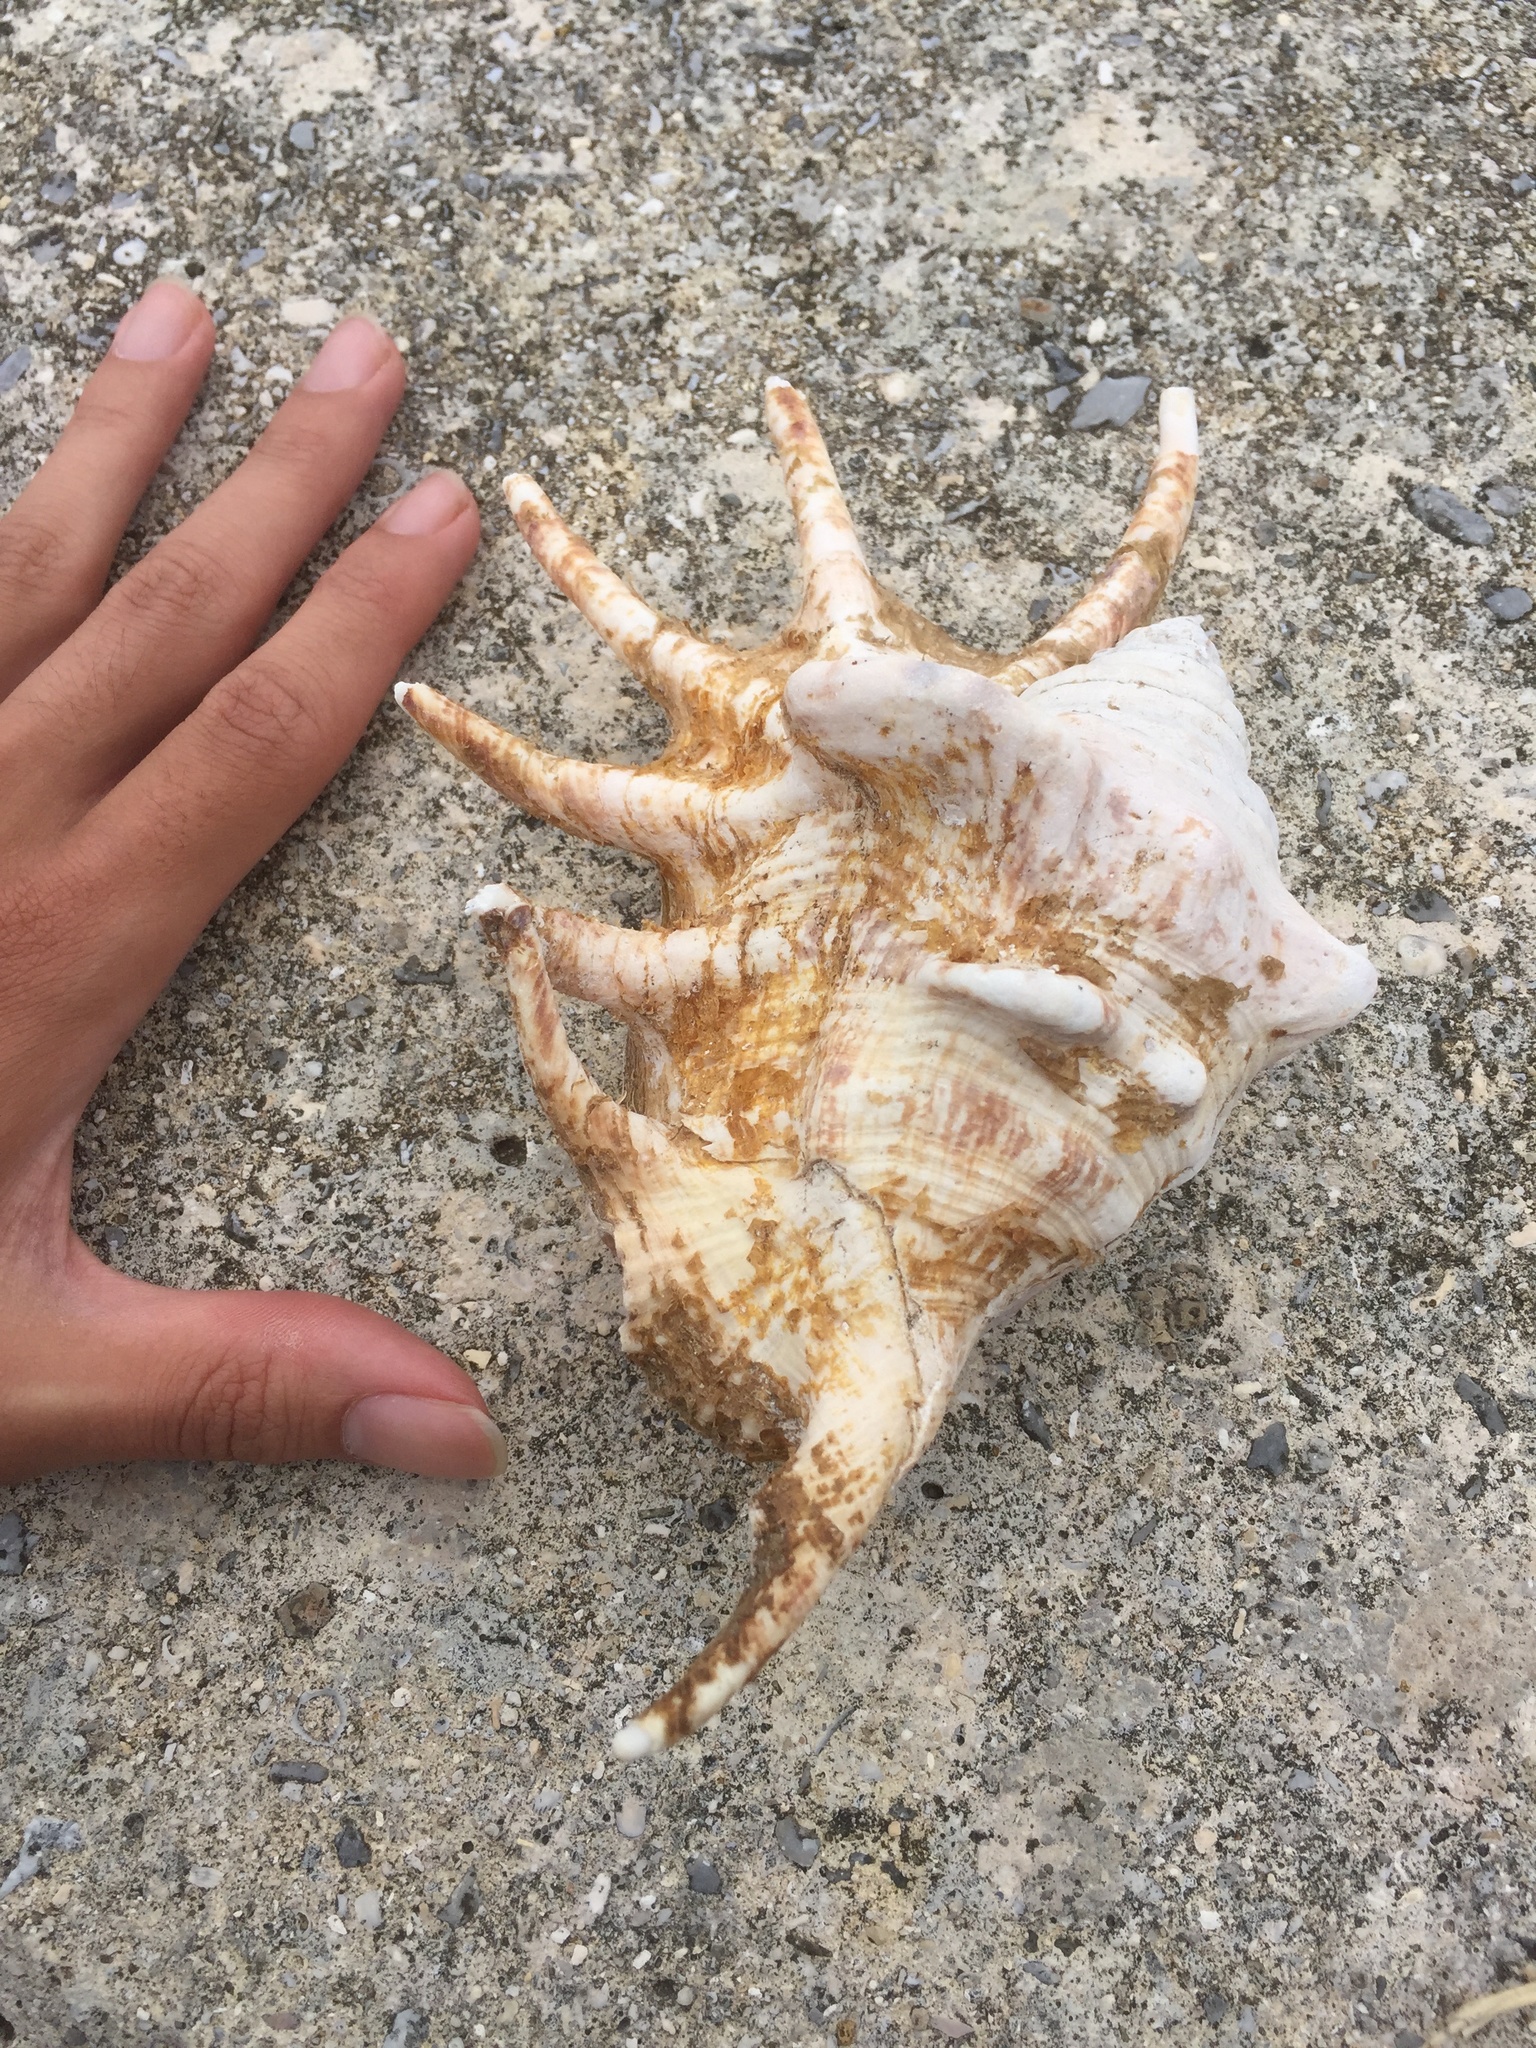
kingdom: Animalia
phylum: Mollusca
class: Gastropoda
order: Littorinimorpha
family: Strombidae
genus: Lambis
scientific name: Lambis lambis
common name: Common spider conch
